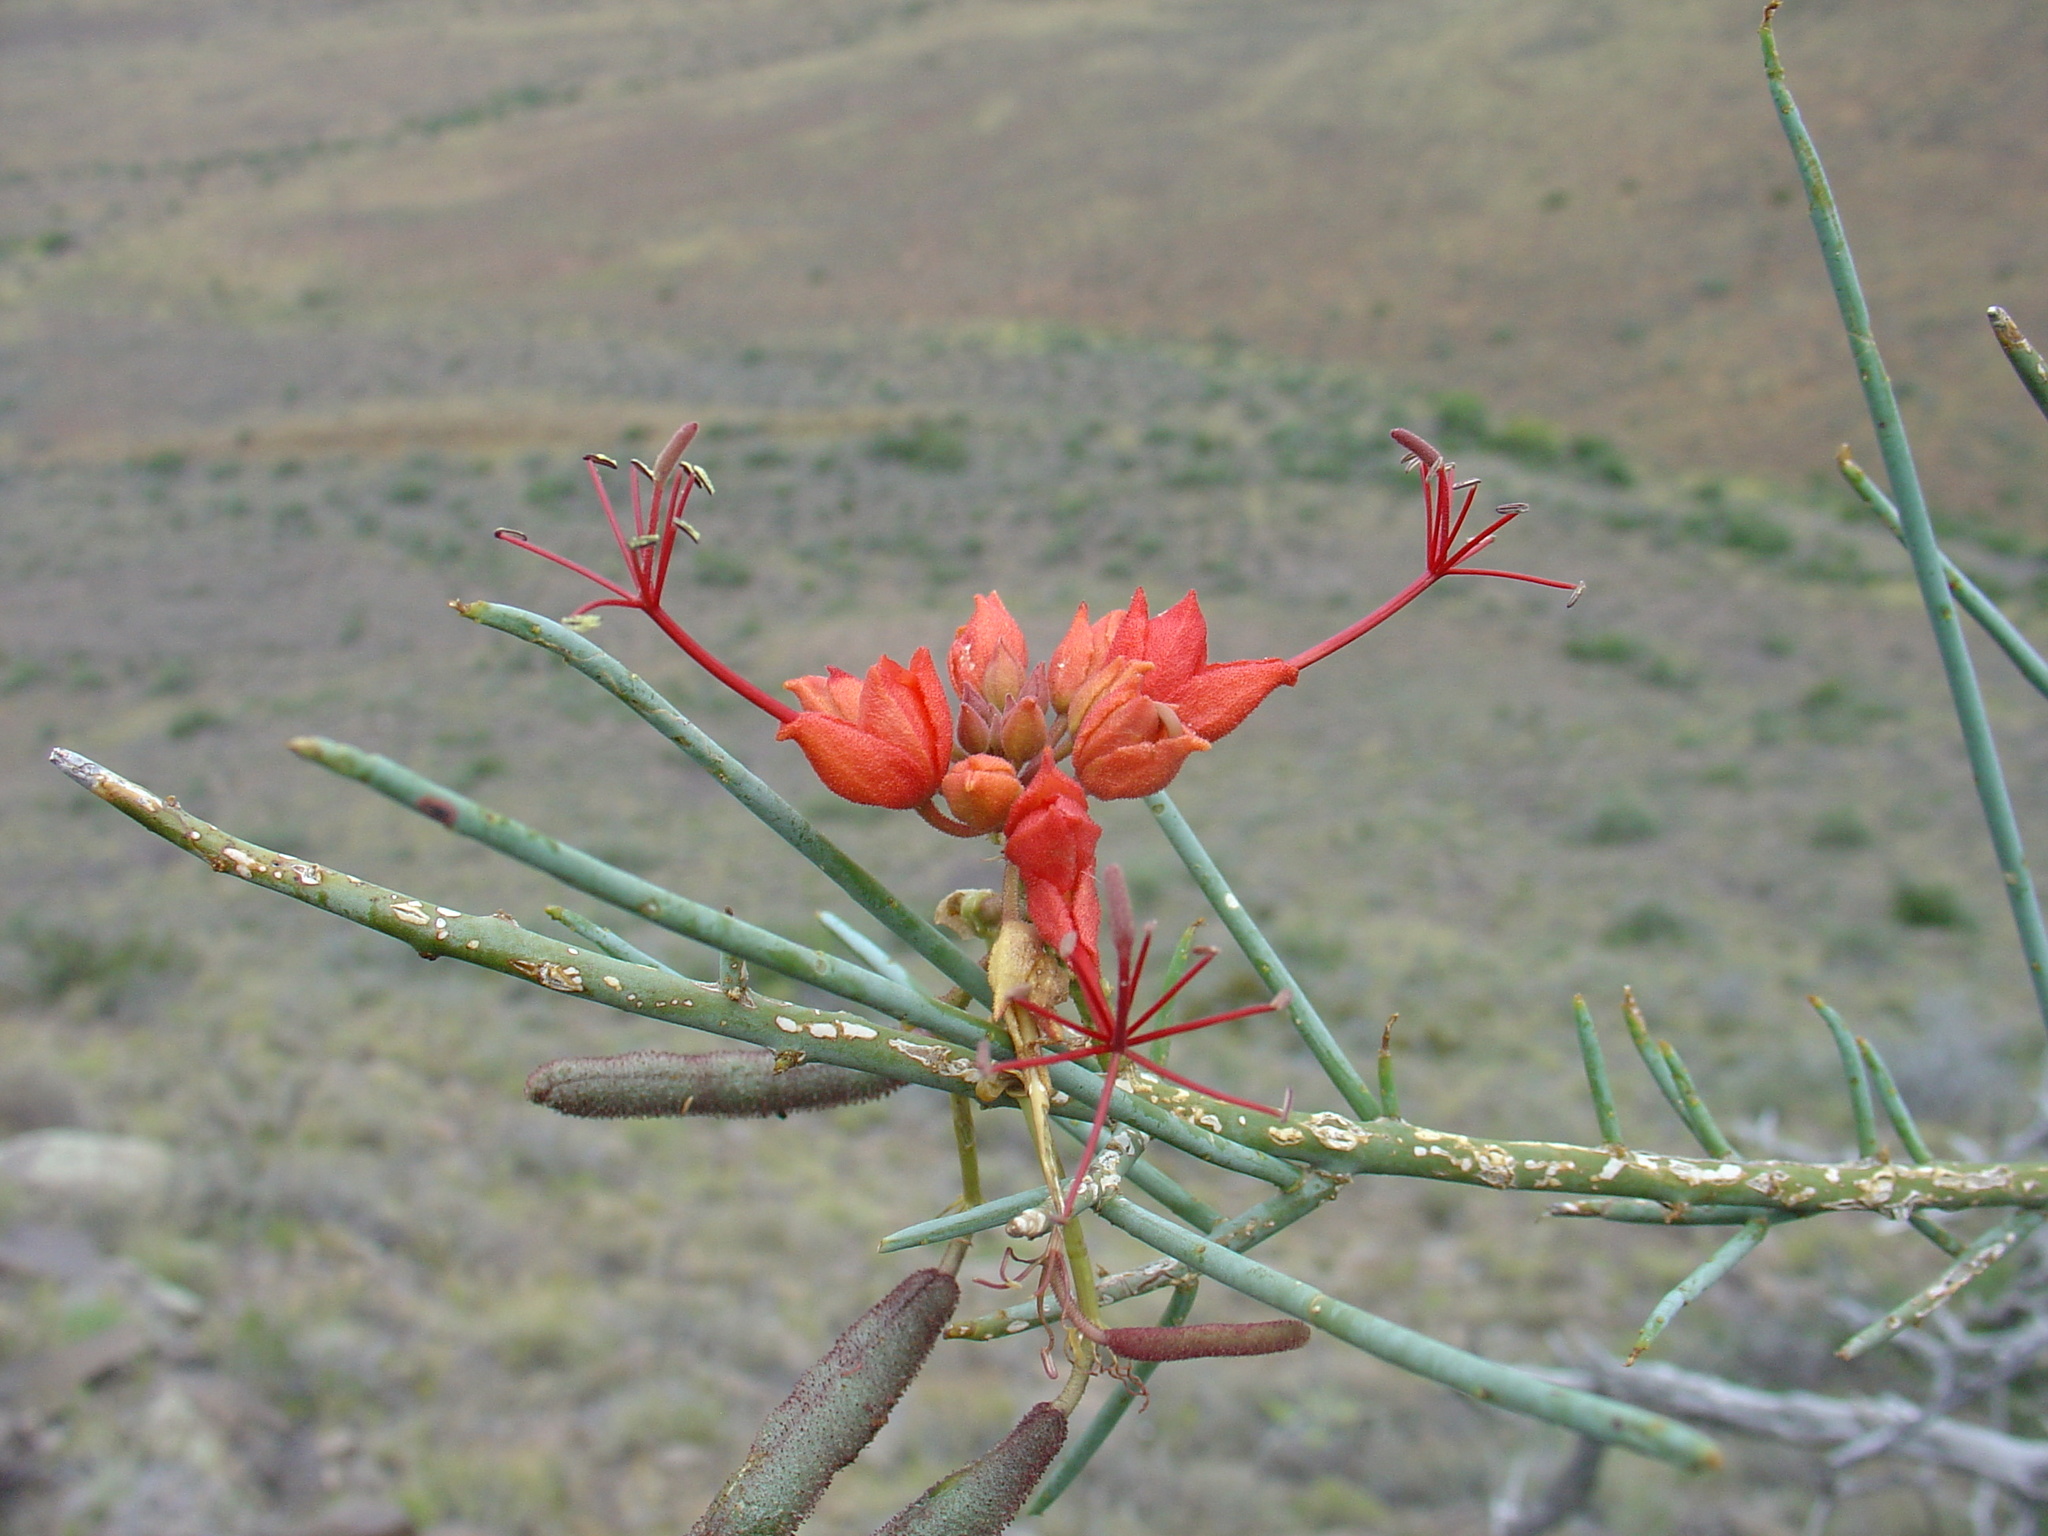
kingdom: Plantae
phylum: Tracheophyta
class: Magnoliopsida
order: Brassicales
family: Capparaceae
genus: Cadaba
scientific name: Cadaba aphylla
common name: Black storm
